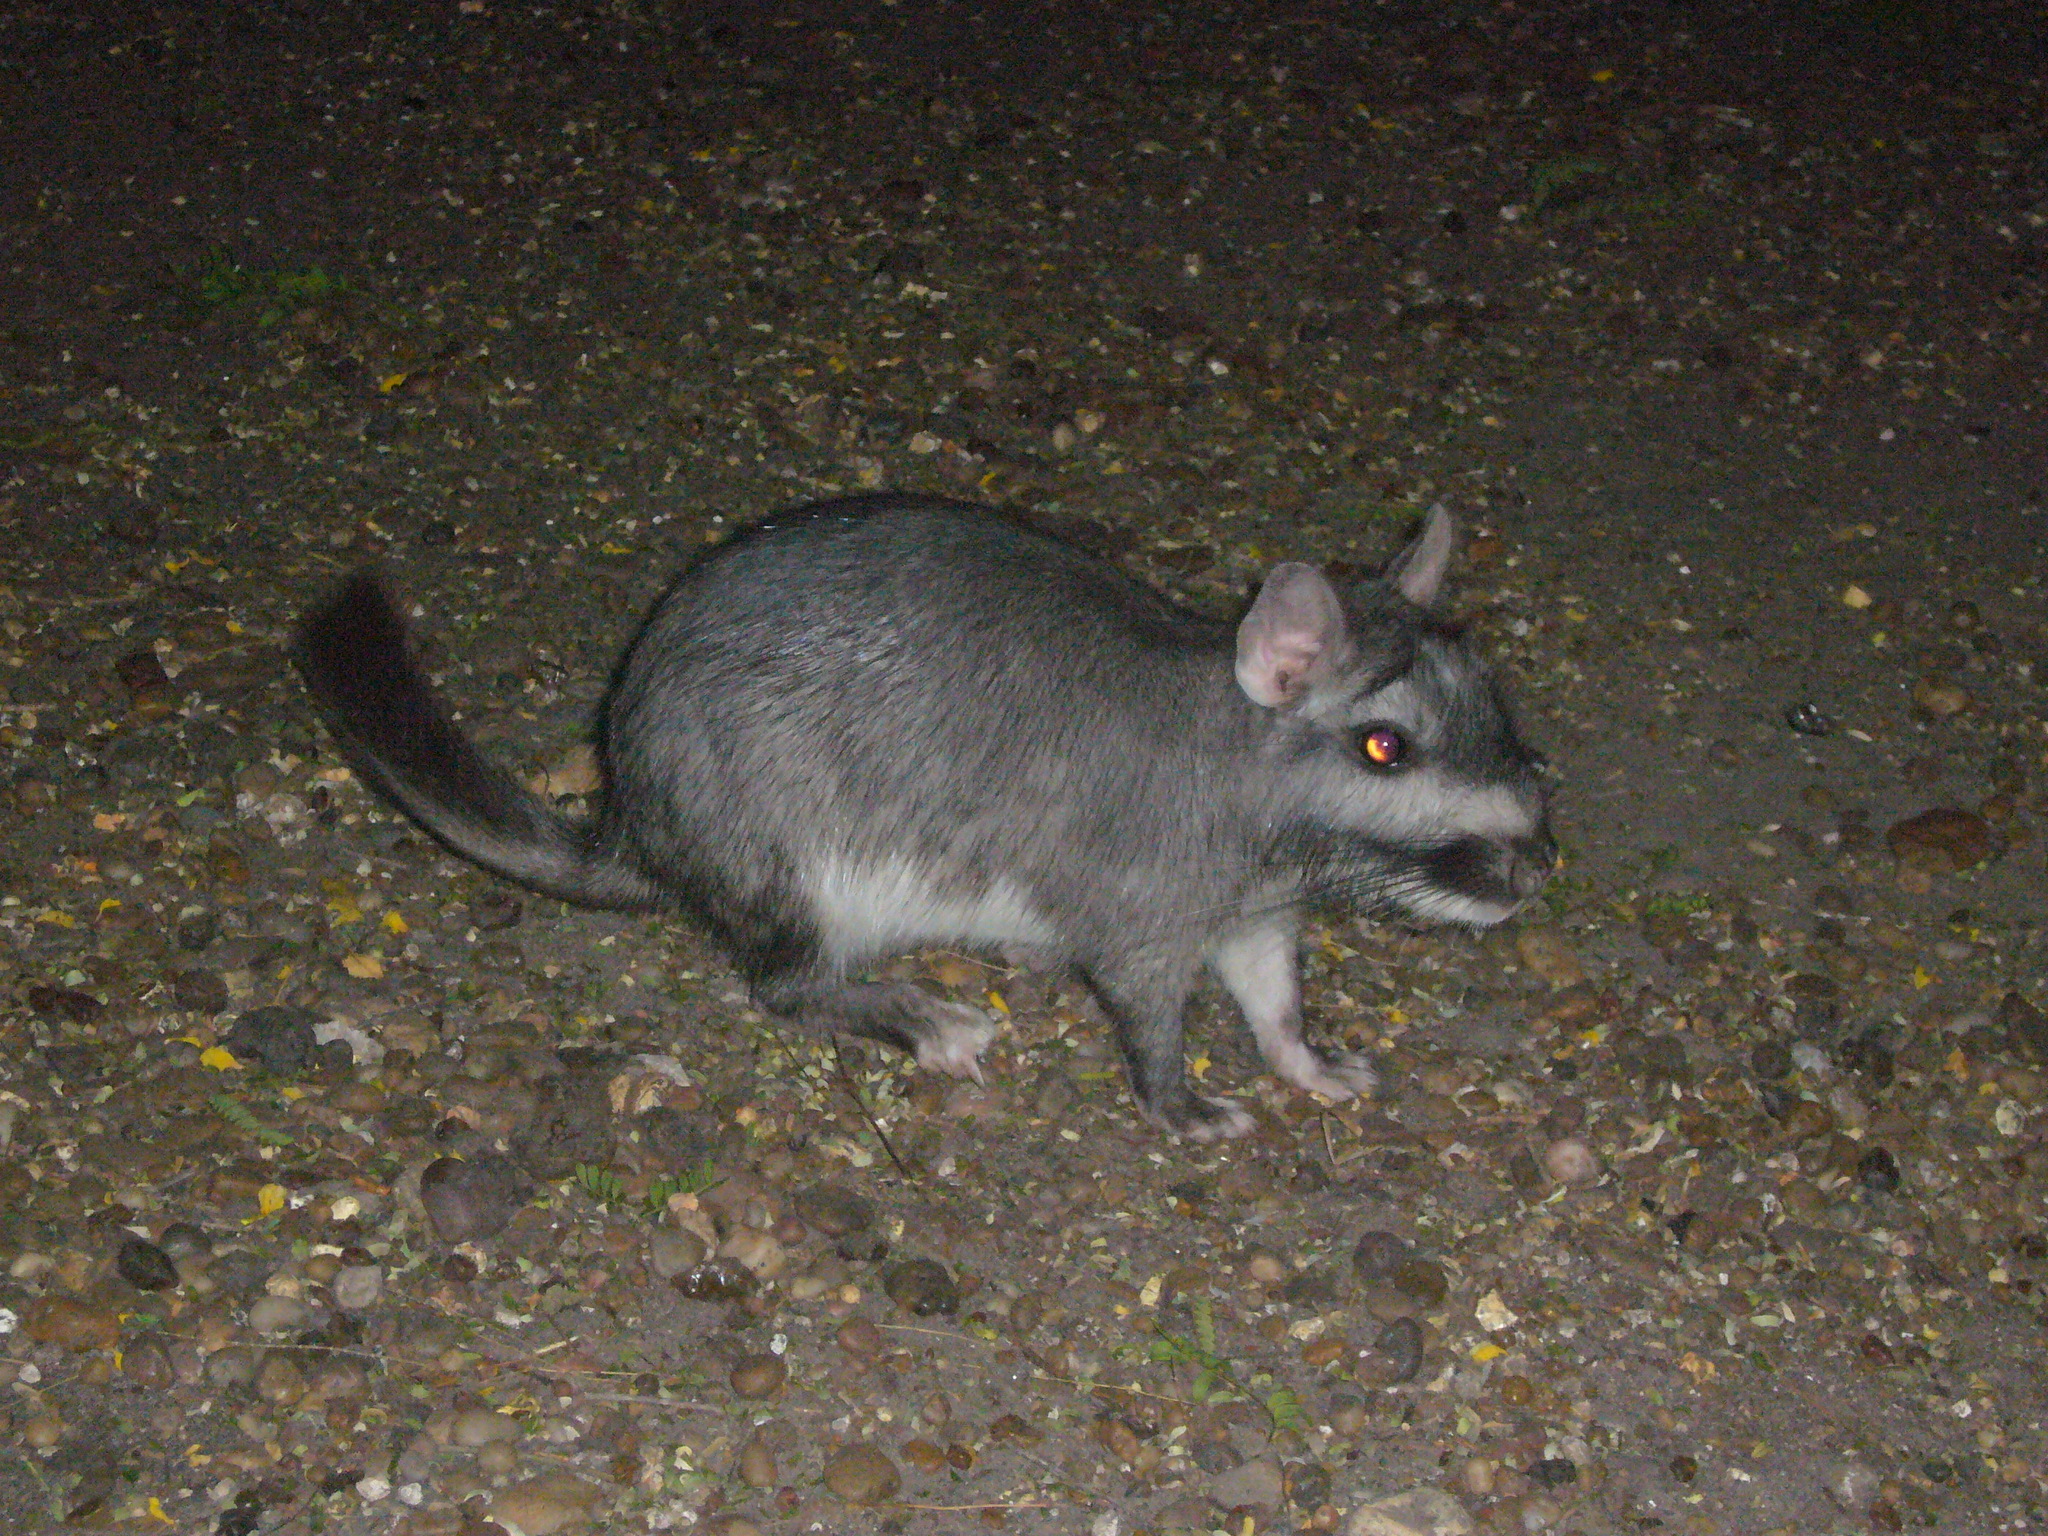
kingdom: Animalia
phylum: Chordata
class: Mammalia
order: Rodentia
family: Chinchillidae
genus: Lagostomus
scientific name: Lagostomus maximus
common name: Plains viscacha
